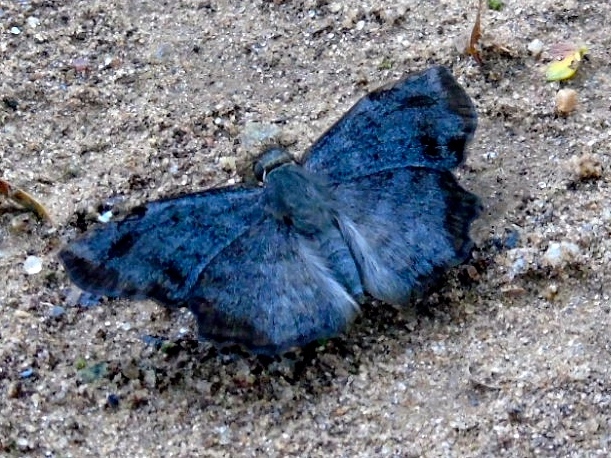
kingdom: Animalia
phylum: Arthropoda
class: Insecta
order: Lepidoptera
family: Hesperiidae
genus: Antigonus
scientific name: Antigonus erosus
